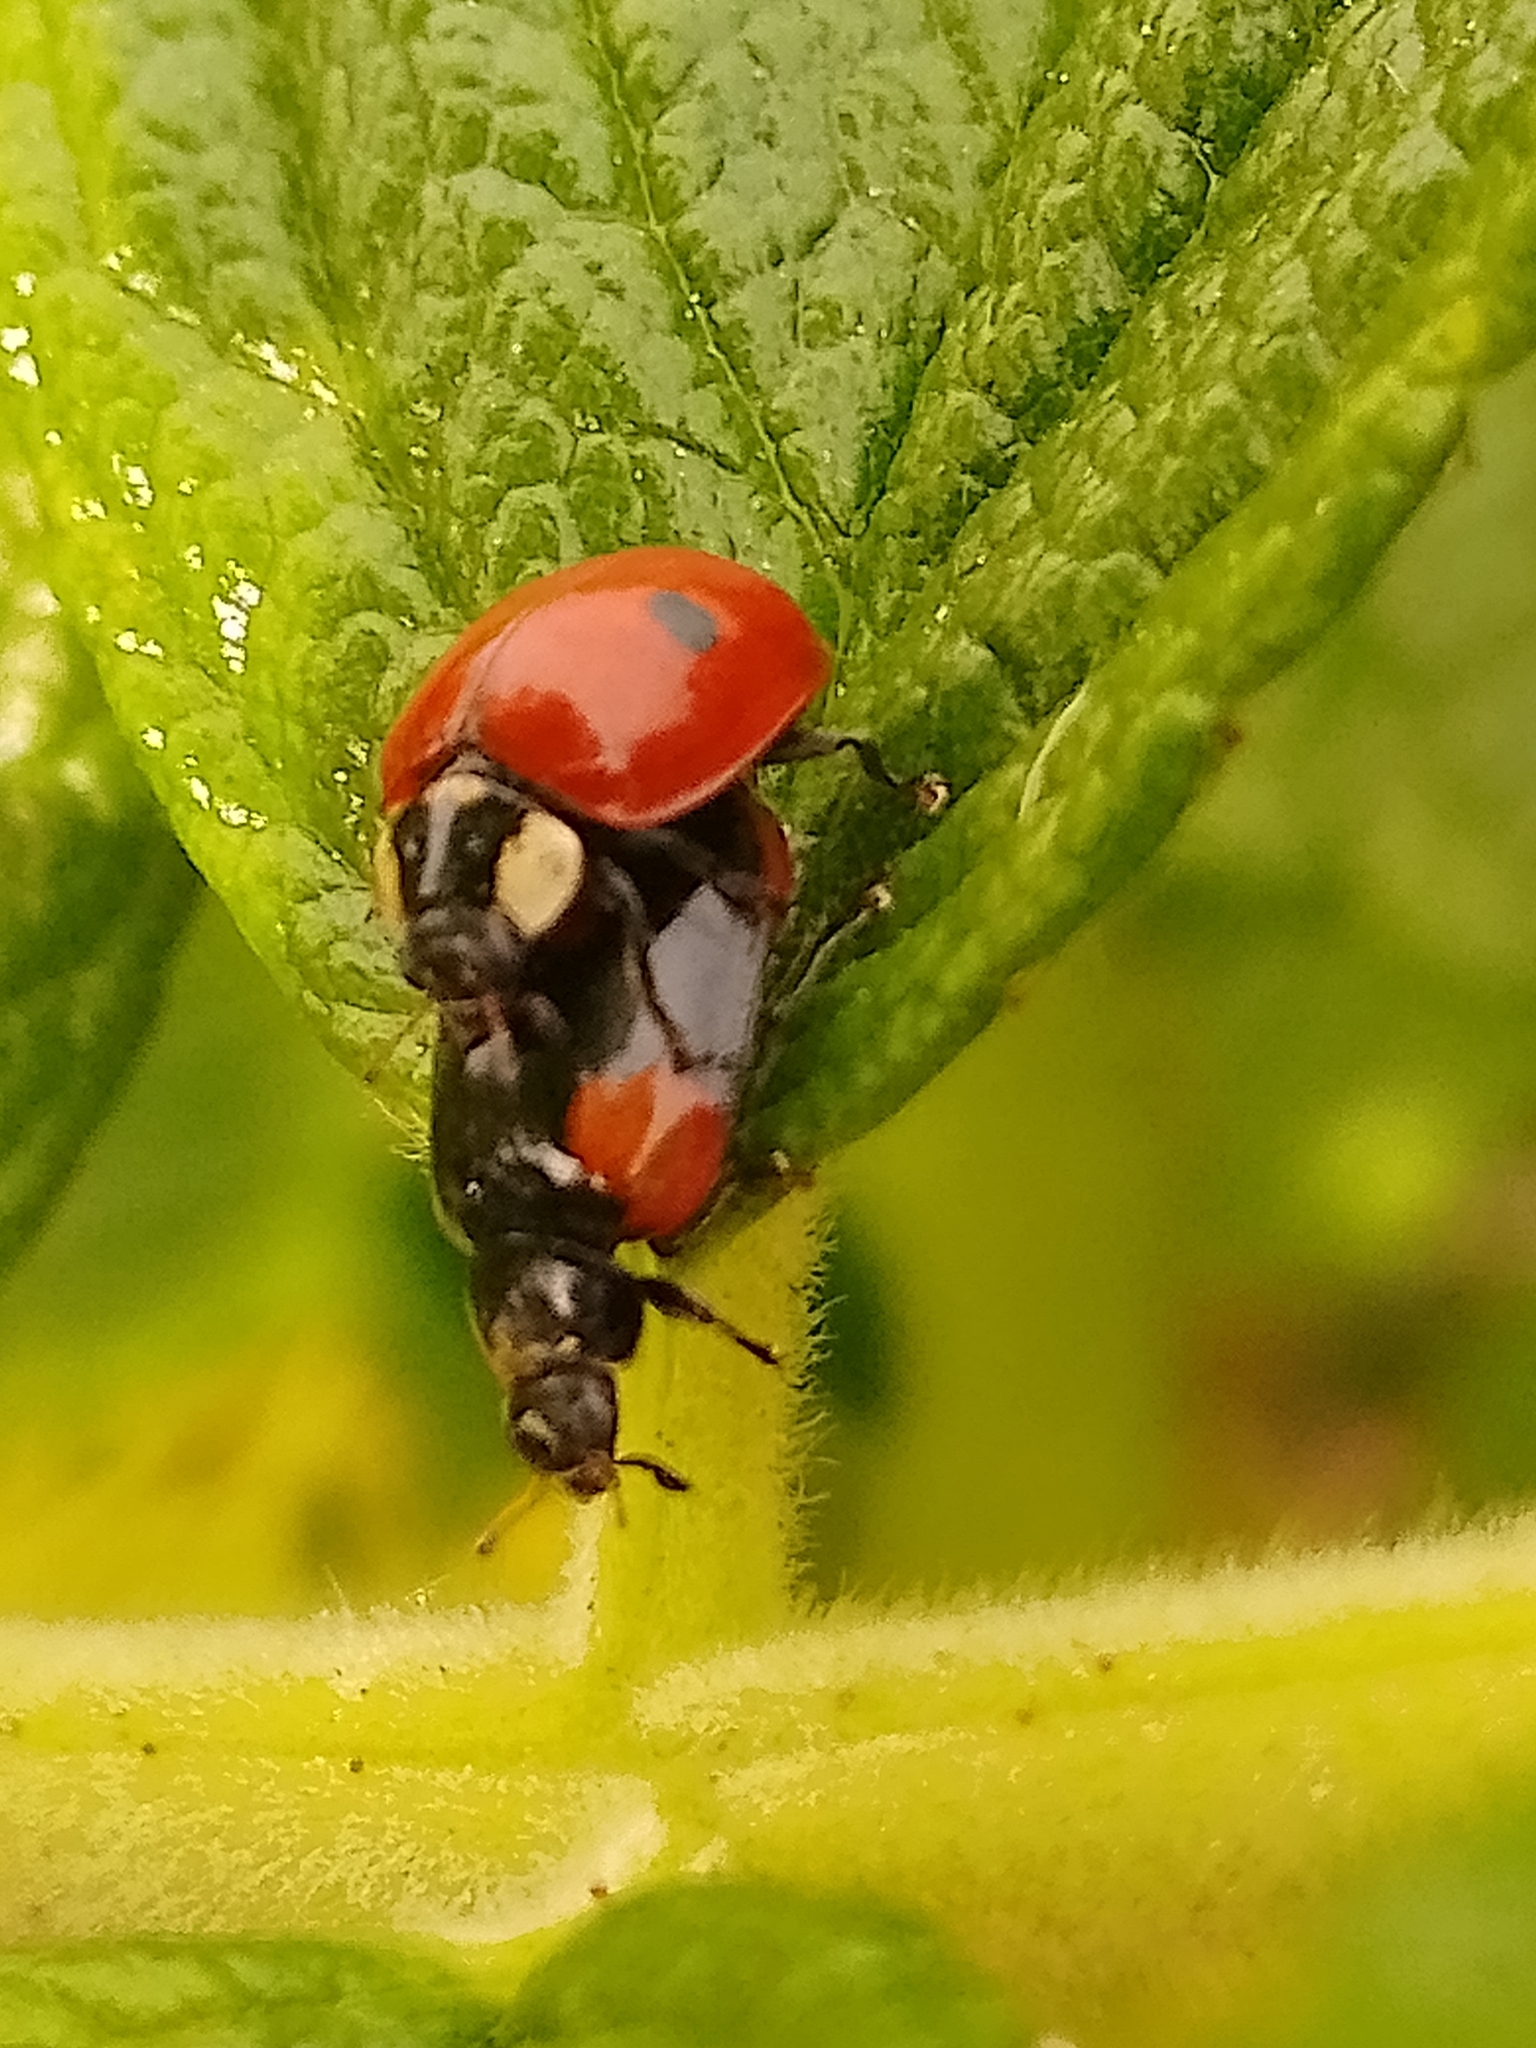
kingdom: Animalia
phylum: Arthropoda
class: Insecta
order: Coleoptera
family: Coccinellidae
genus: Adalia
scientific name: Adalia bipunctata
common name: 2-spot ladybird
